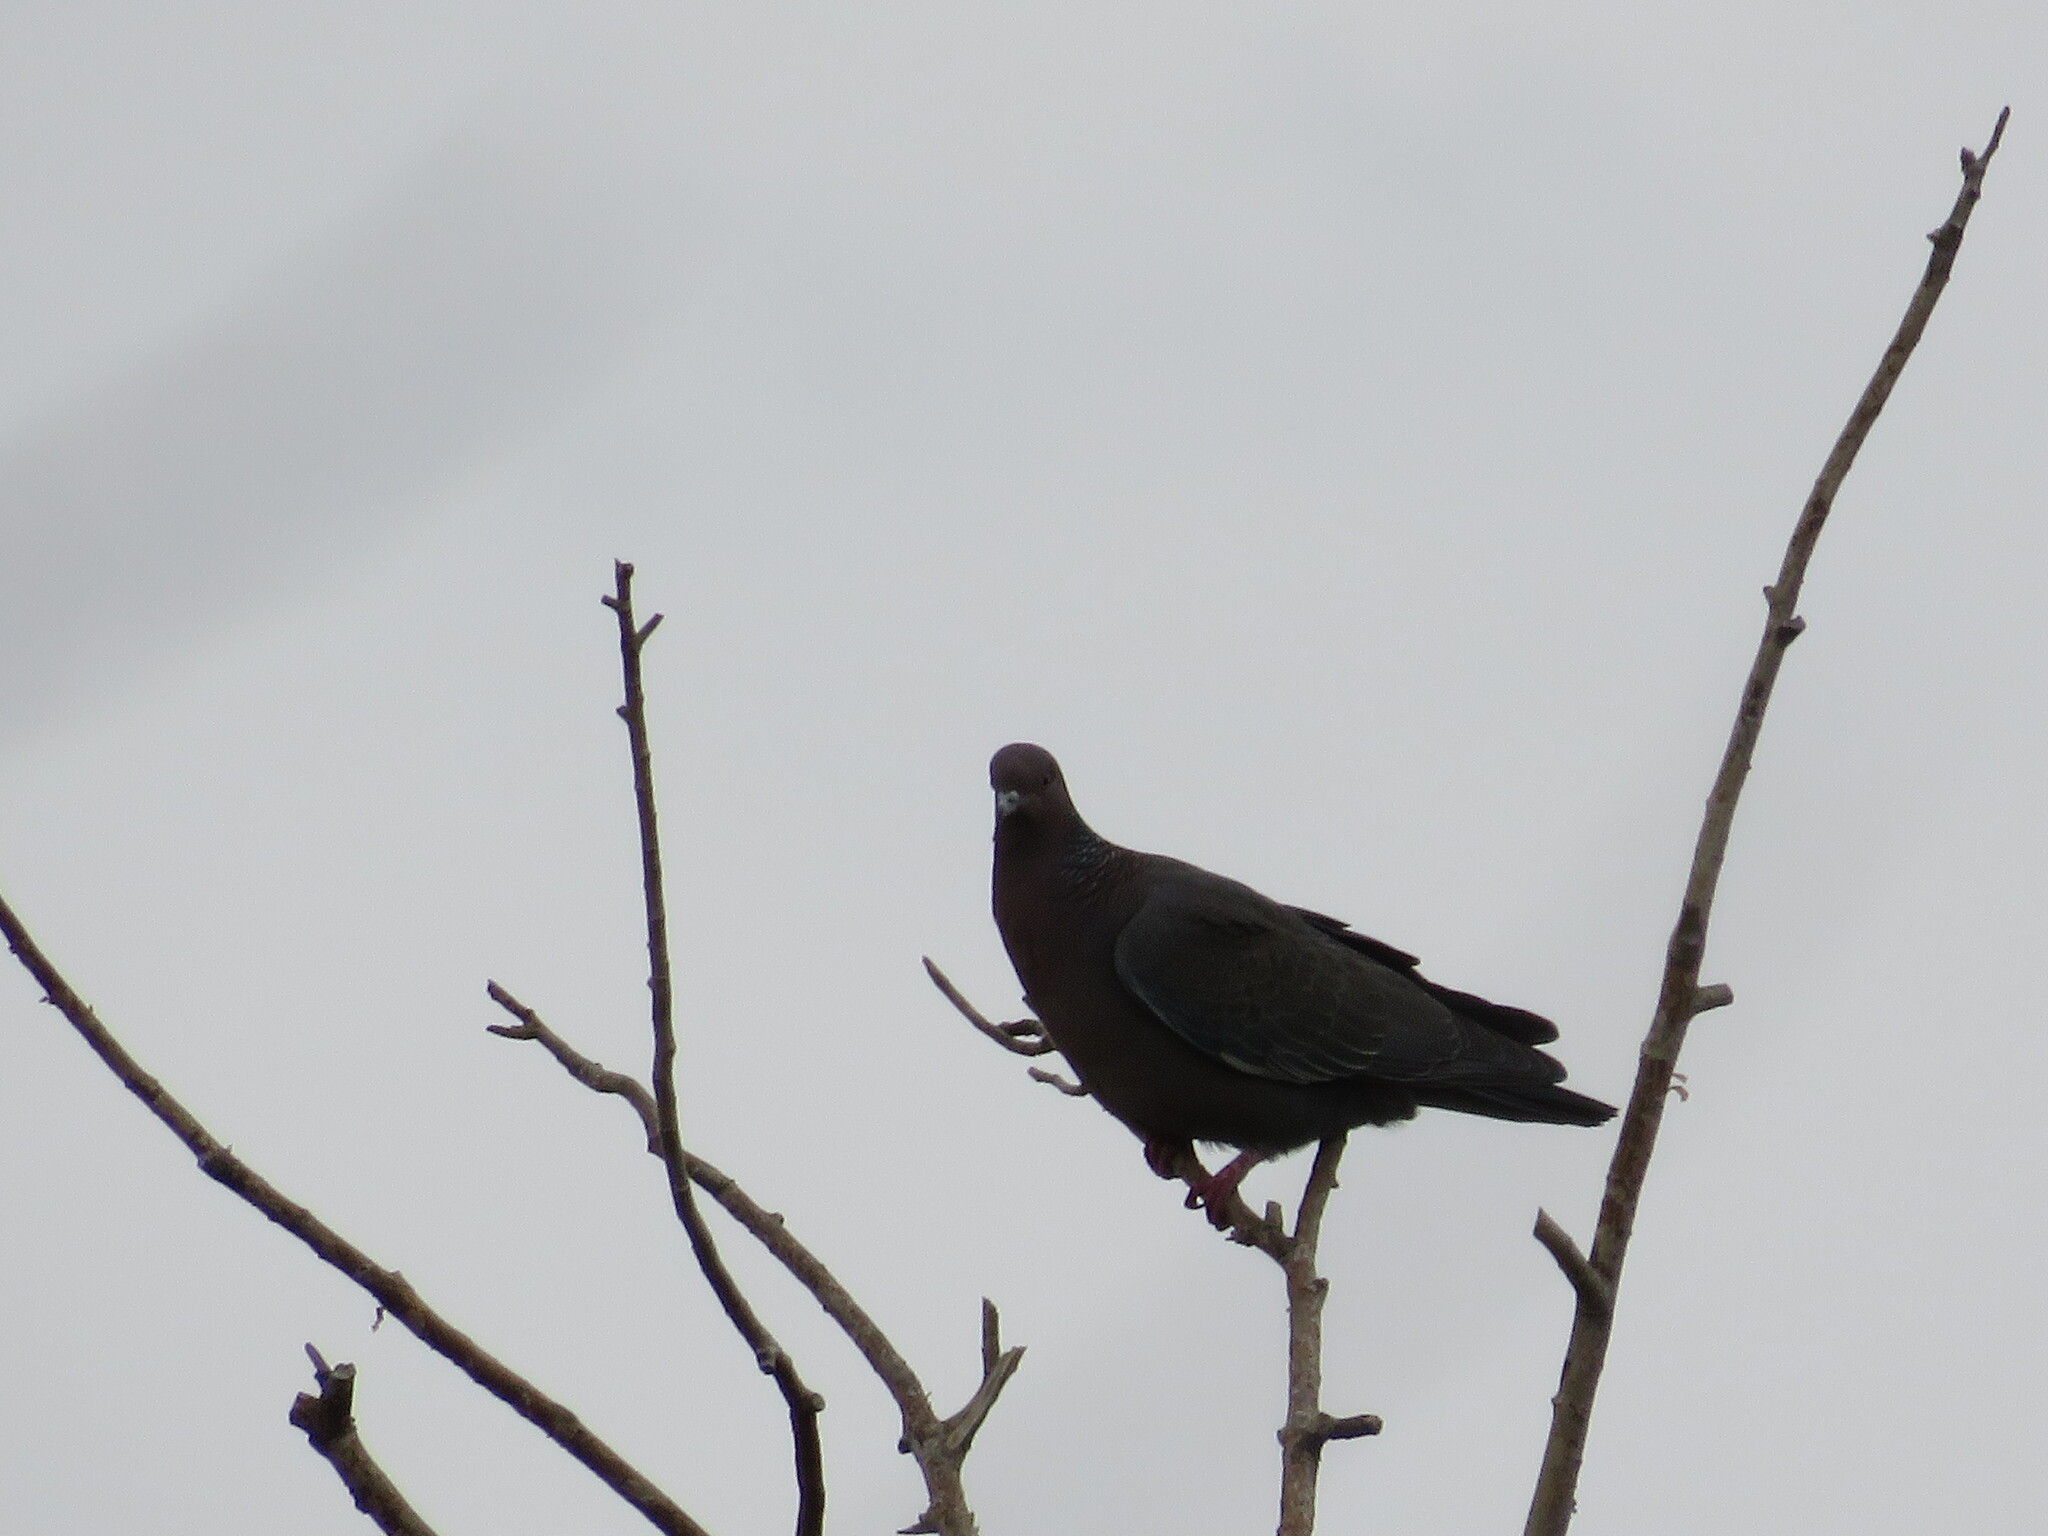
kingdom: Animalia
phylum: Chordata
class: Aves
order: Columbiformes
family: Columbidae
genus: Patagioenas
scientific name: Patagioenas picazuro
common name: Picazuro pigeon
